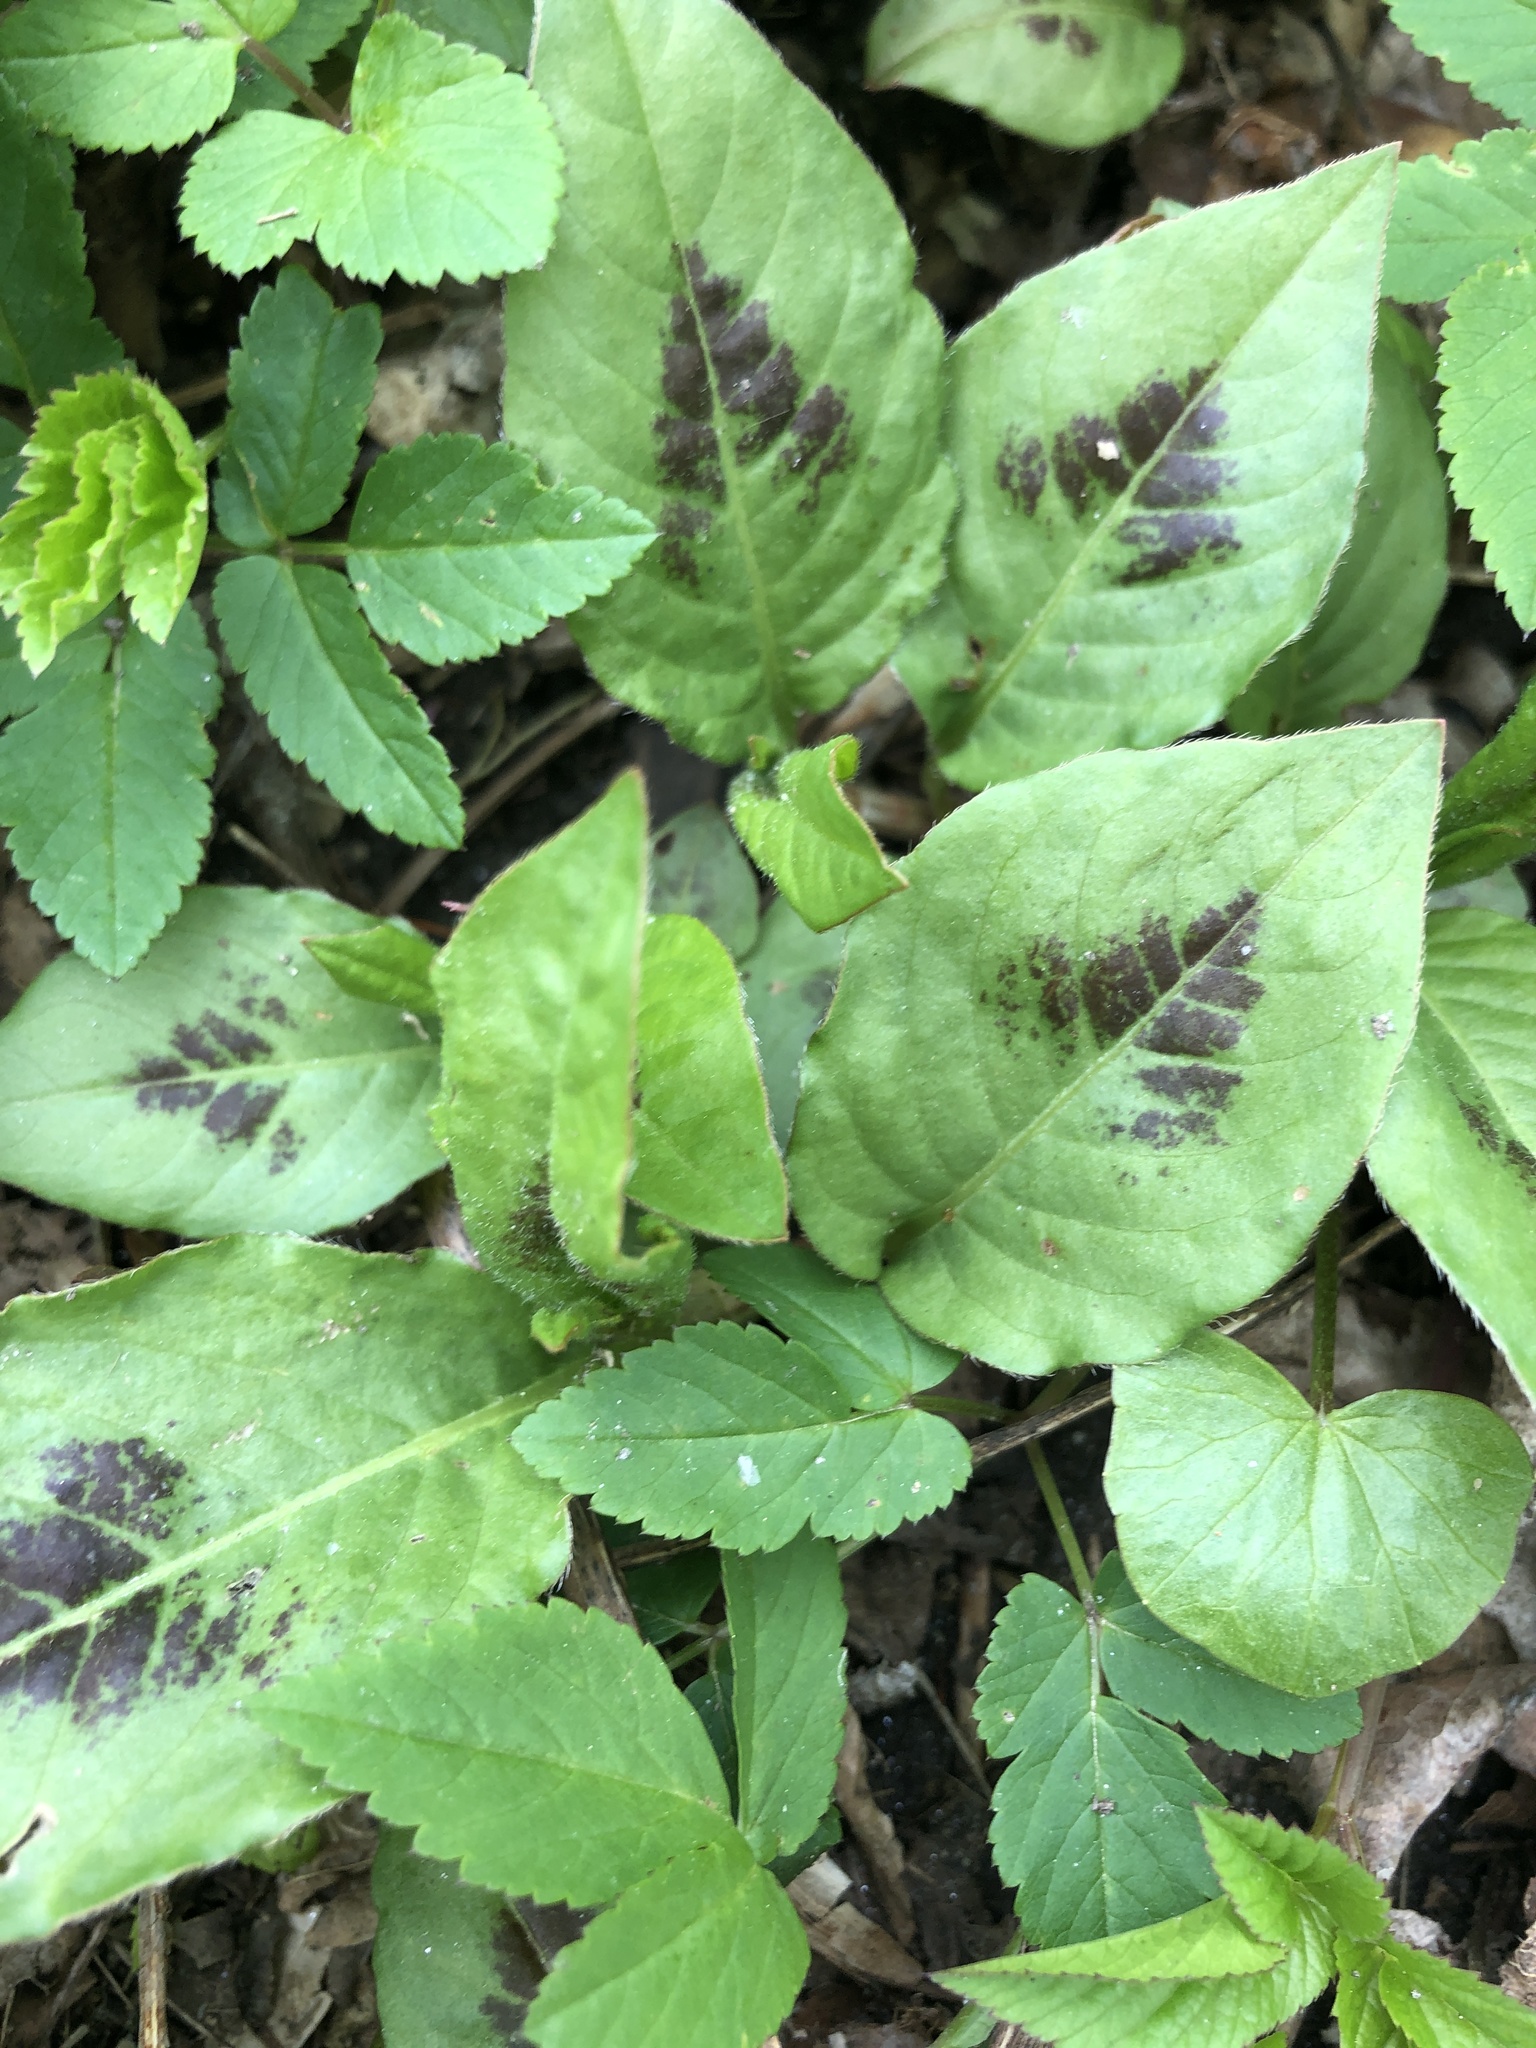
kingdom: Plantae
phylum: Tracheophyta
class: Magnoliopsida
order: Caryophyllales
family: Polygonaceae
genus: Persicaria
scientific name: Persicaria virginiana
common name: Jumpseed
